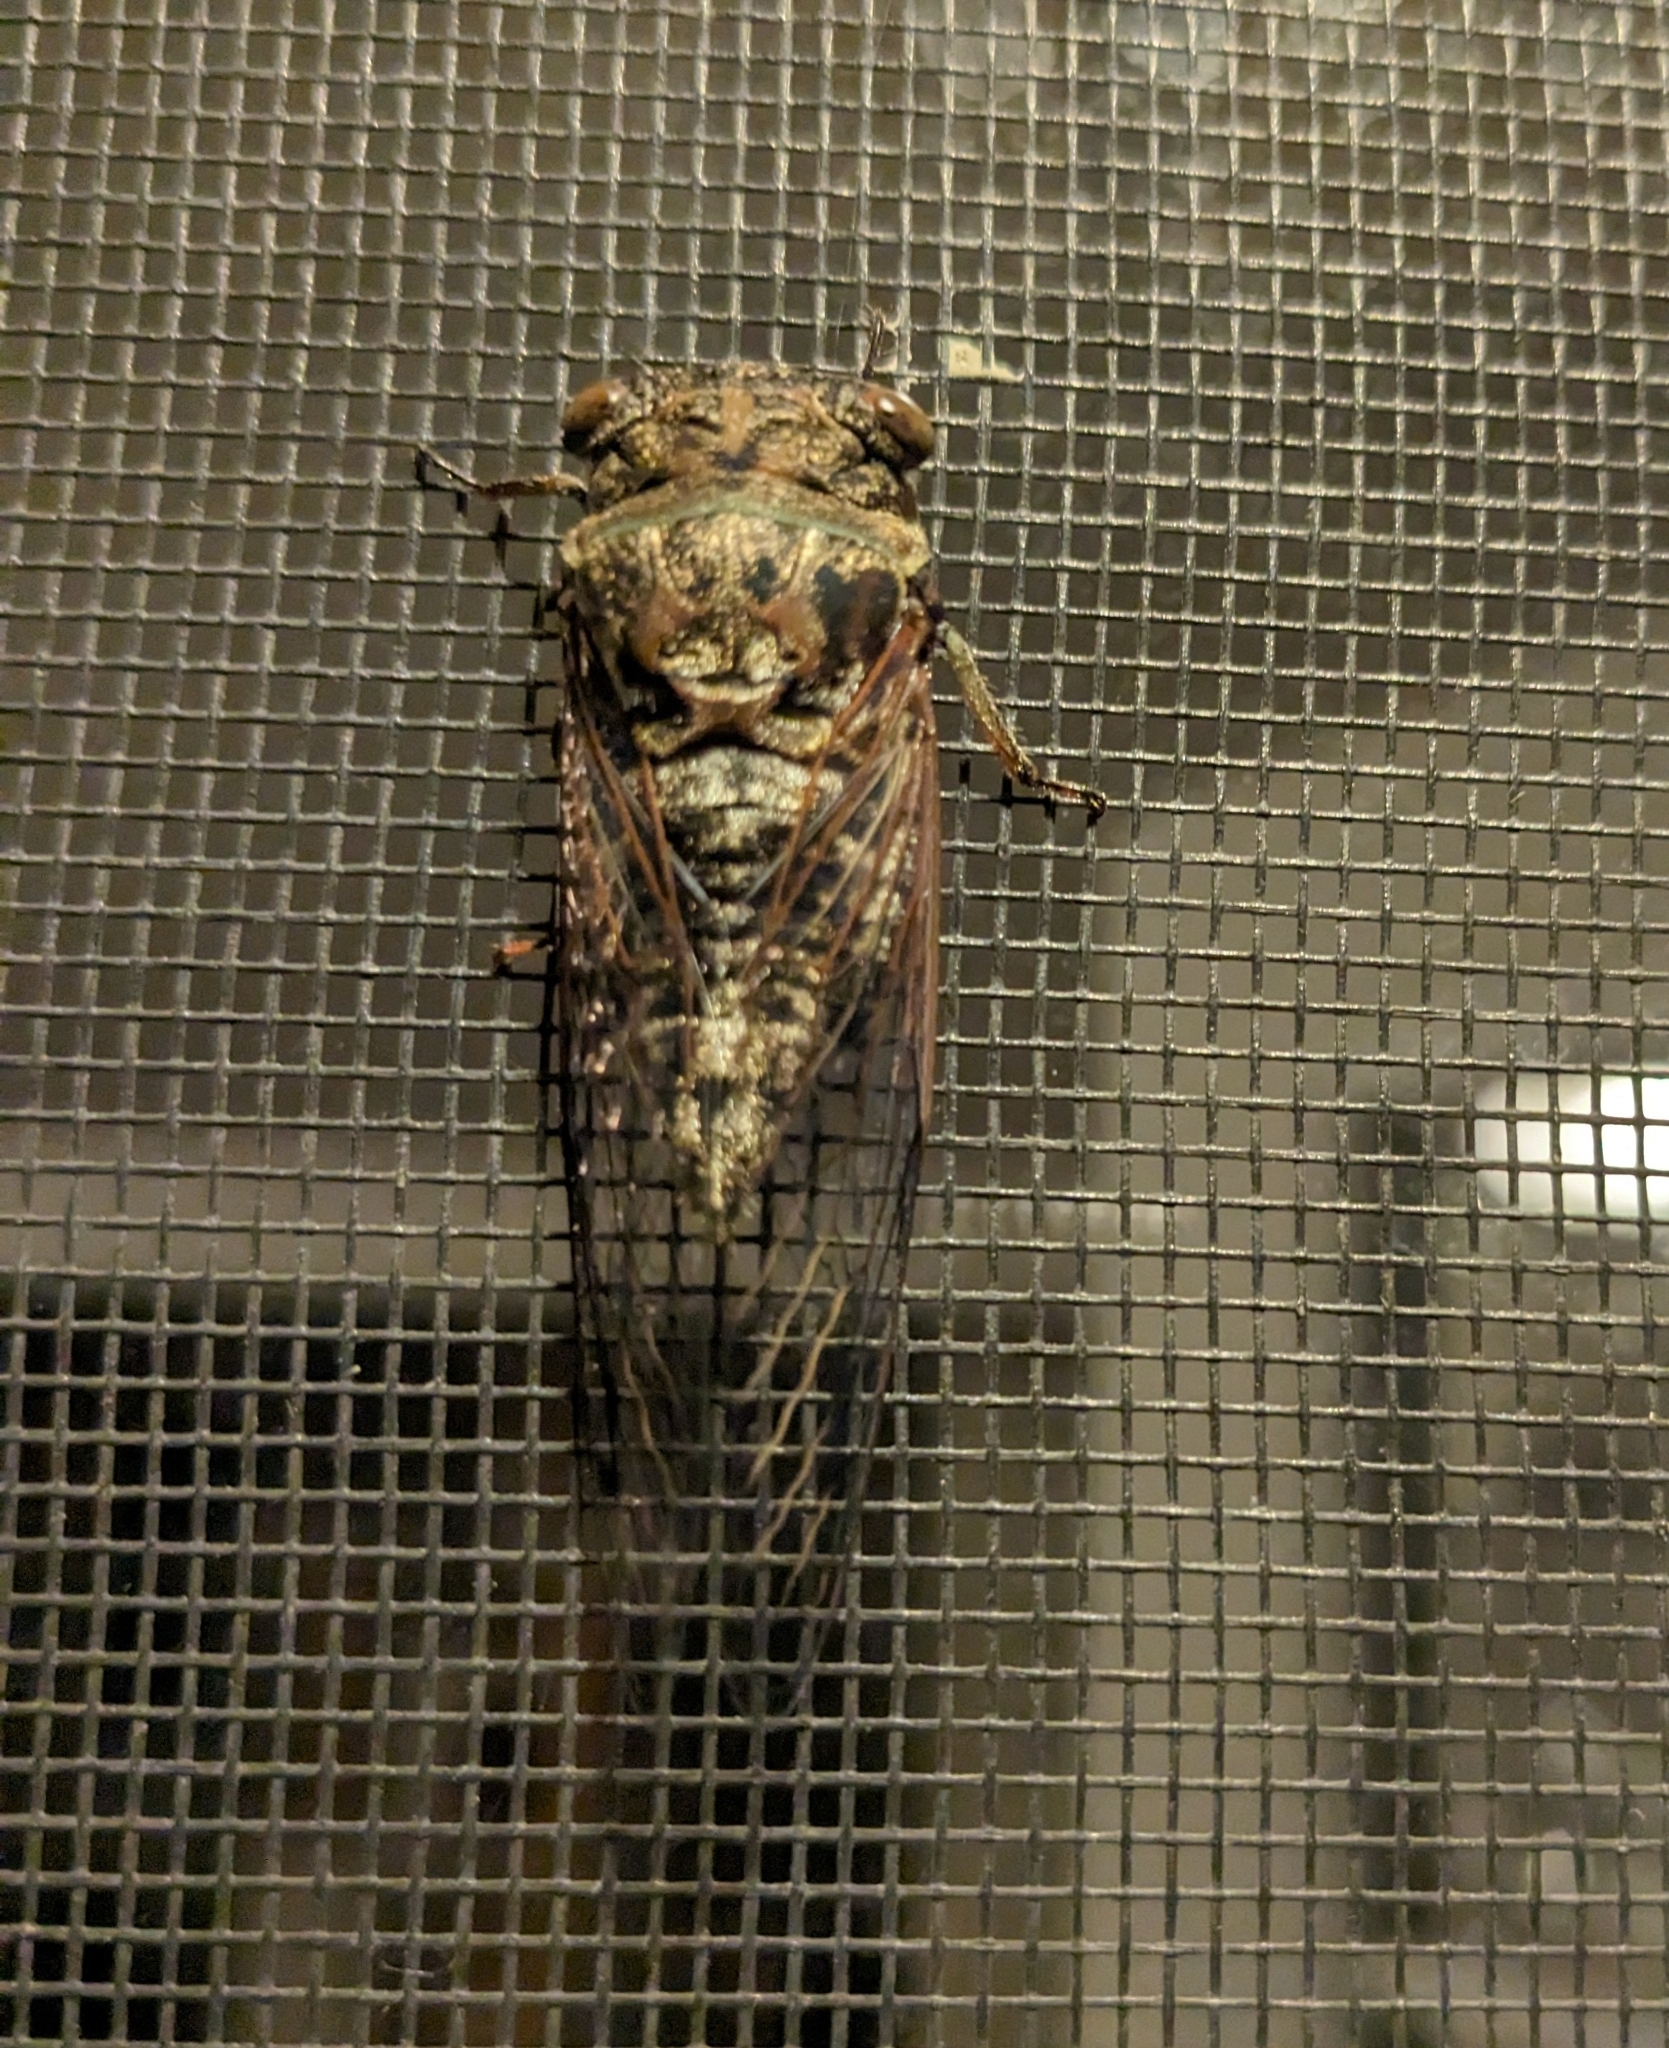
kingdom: Animalia
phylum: Arthropoda
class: Insecta
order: Hemiptera
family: Cicadidae
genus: Neotibicen
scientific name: Neotibicen canicularis
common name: God-day cicada
